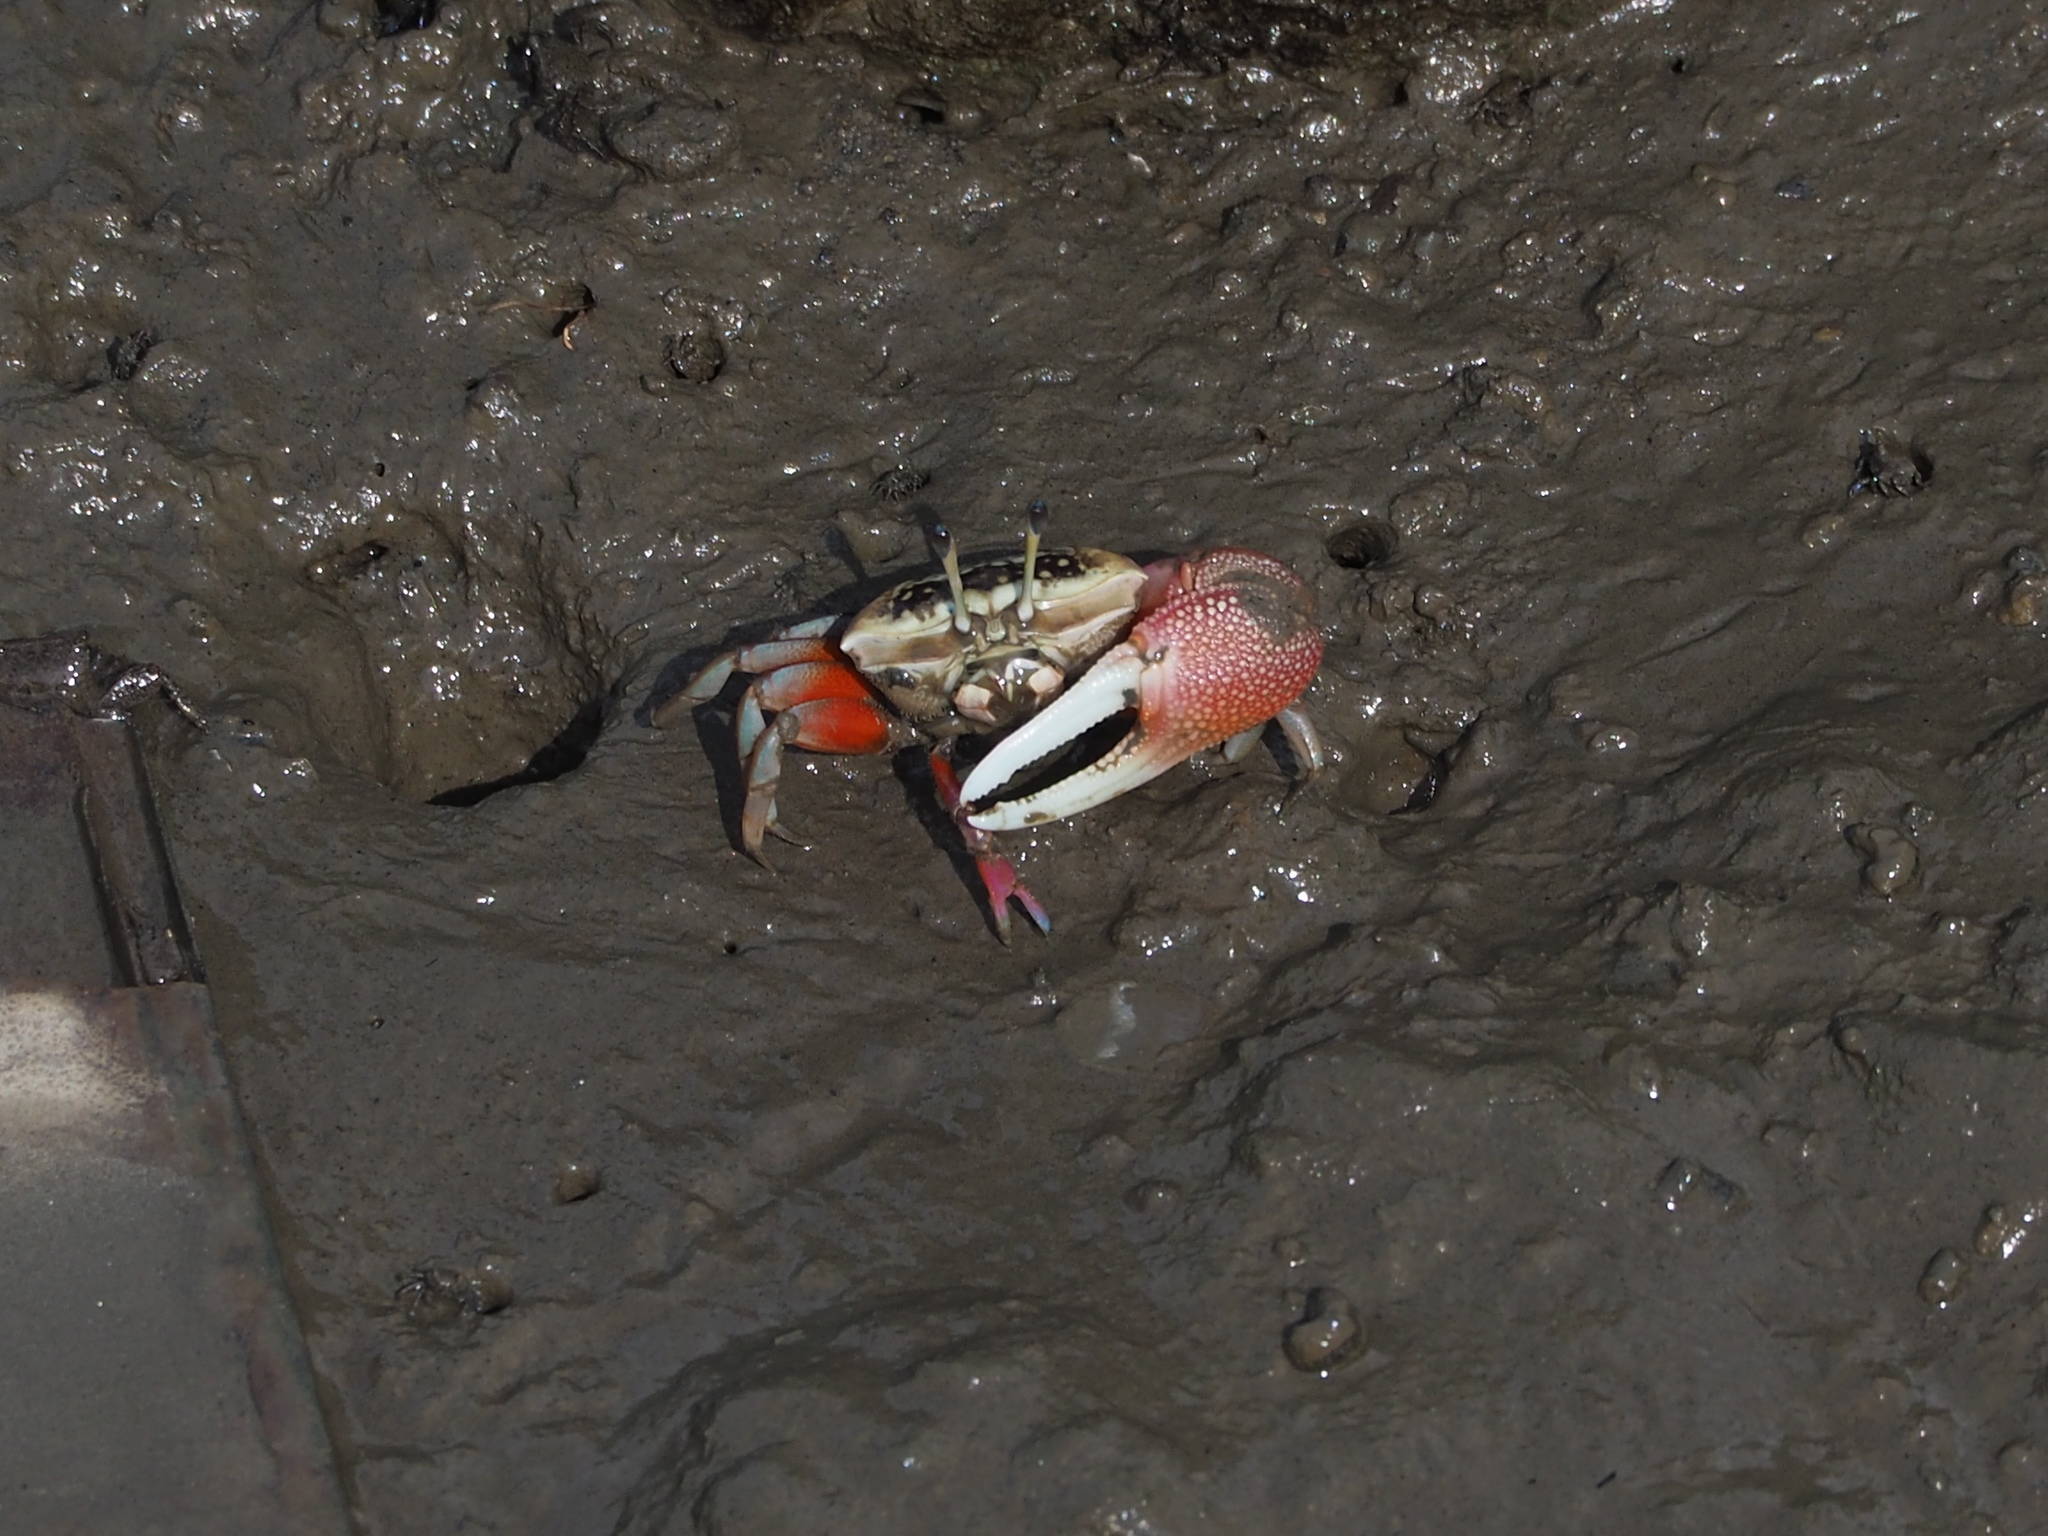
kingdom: Animalia
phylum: Arthropoda
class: Malacostraca
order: Decapoda
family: Ocypodidae
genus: Tubuca
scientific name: Tubuca arcuata
